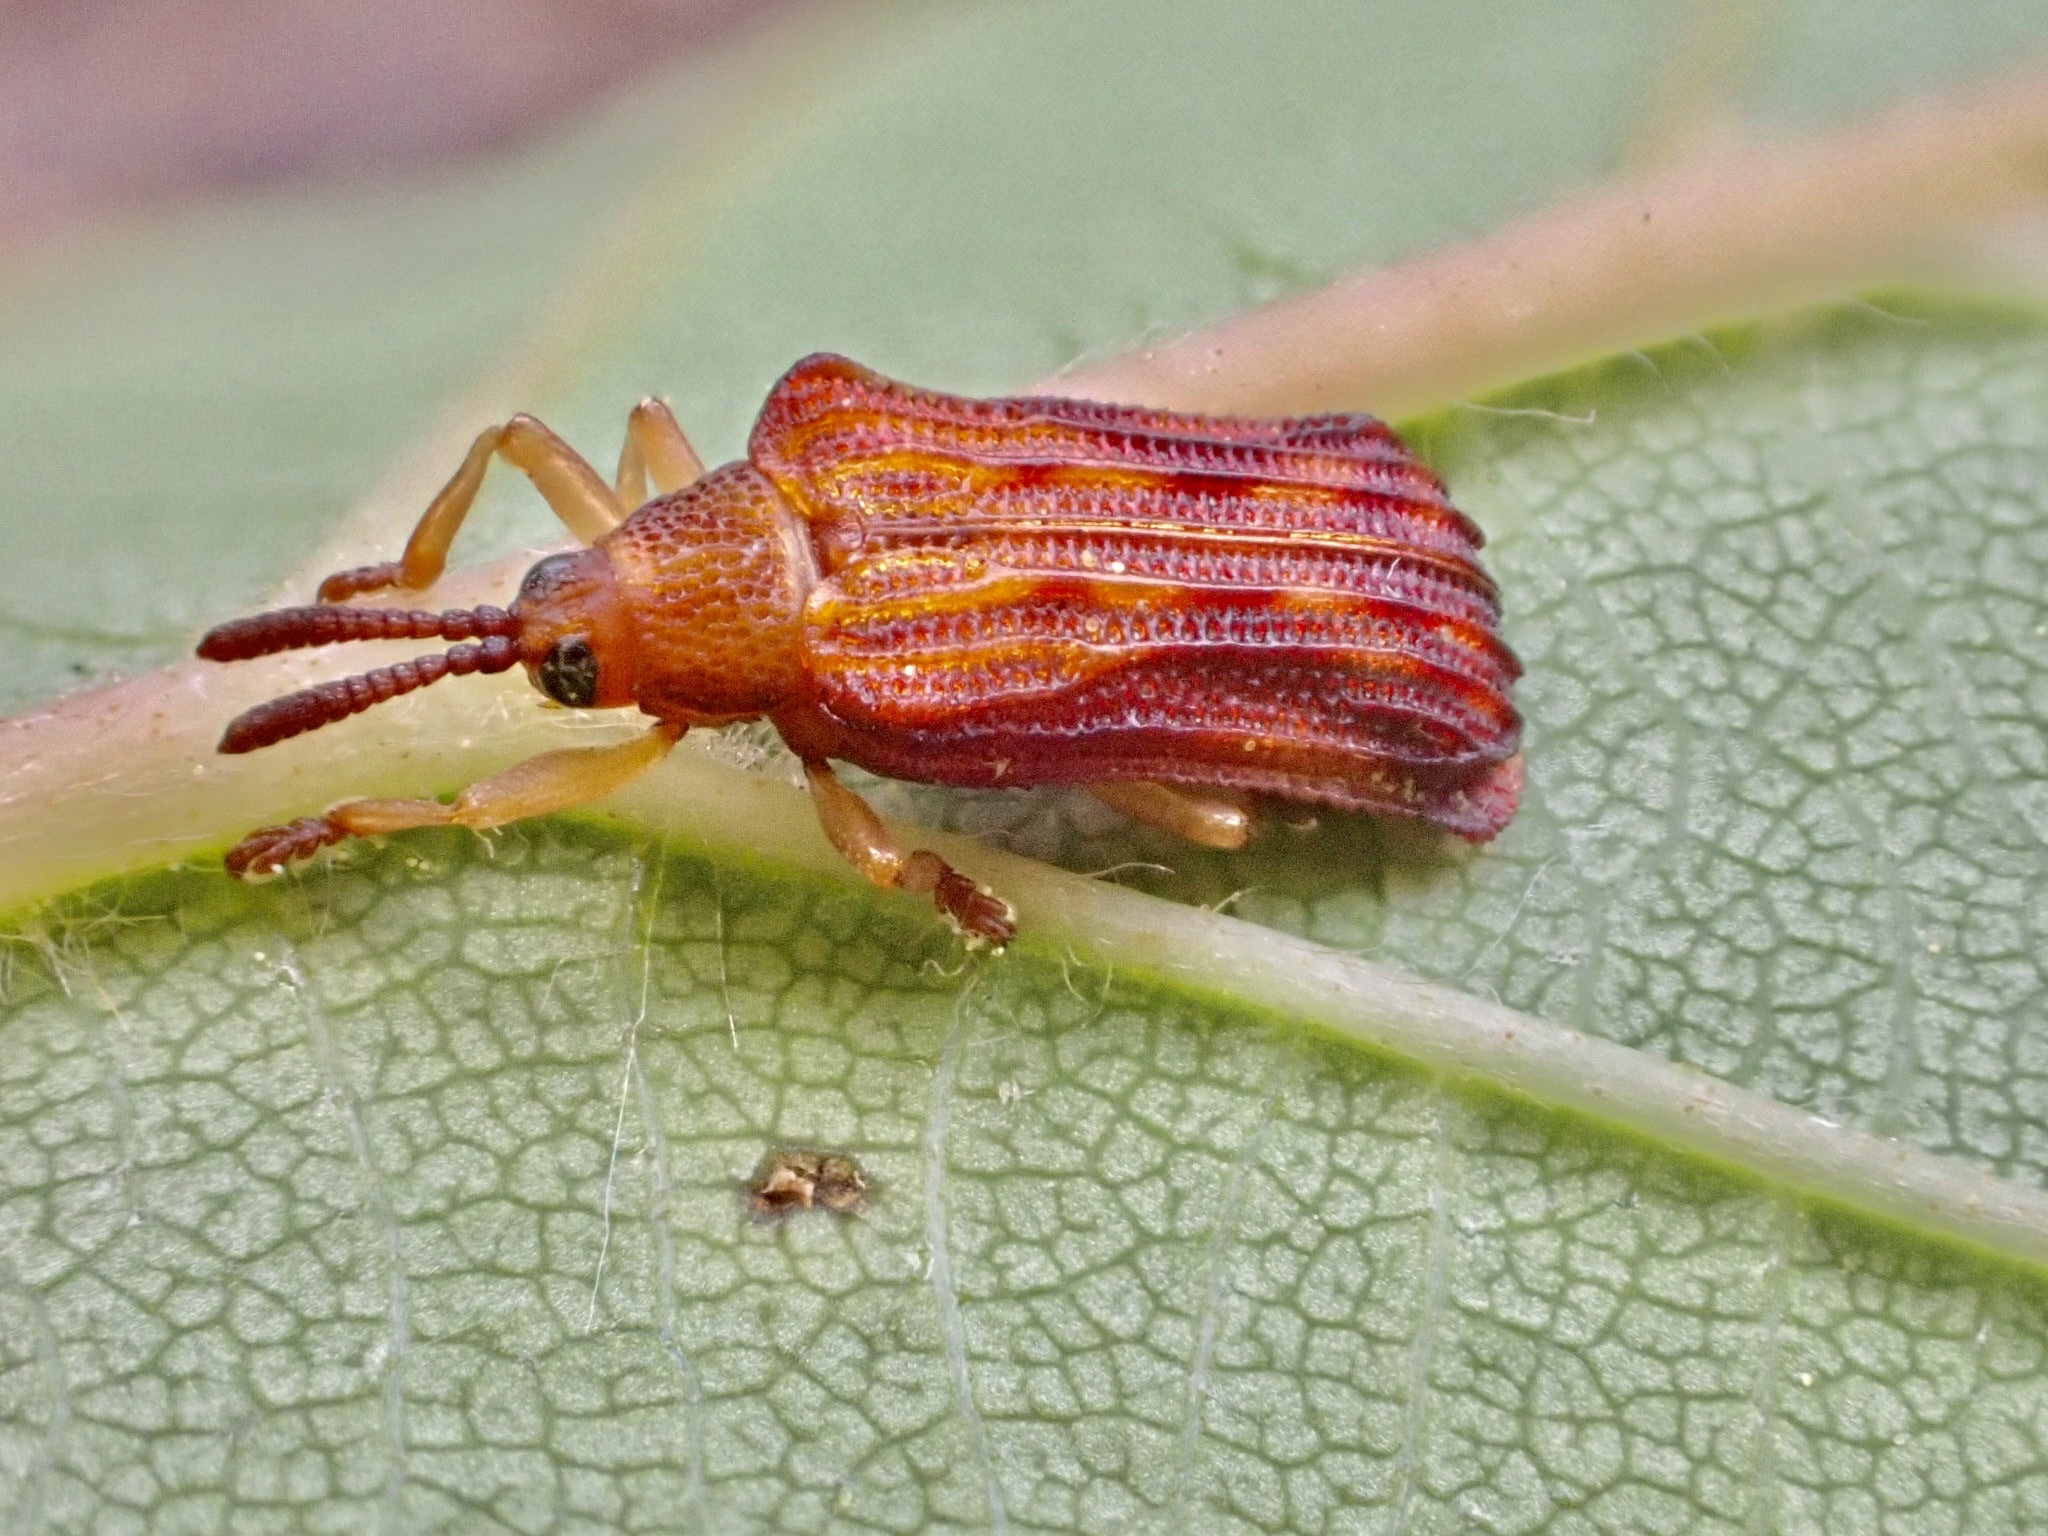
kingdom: Animalia
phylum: Arthropoda
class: Insecta
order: Coleoptera
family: Chrysomelidae
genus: Baliosus
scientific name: Baliosus nervosus
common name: Basswood leaf miner
